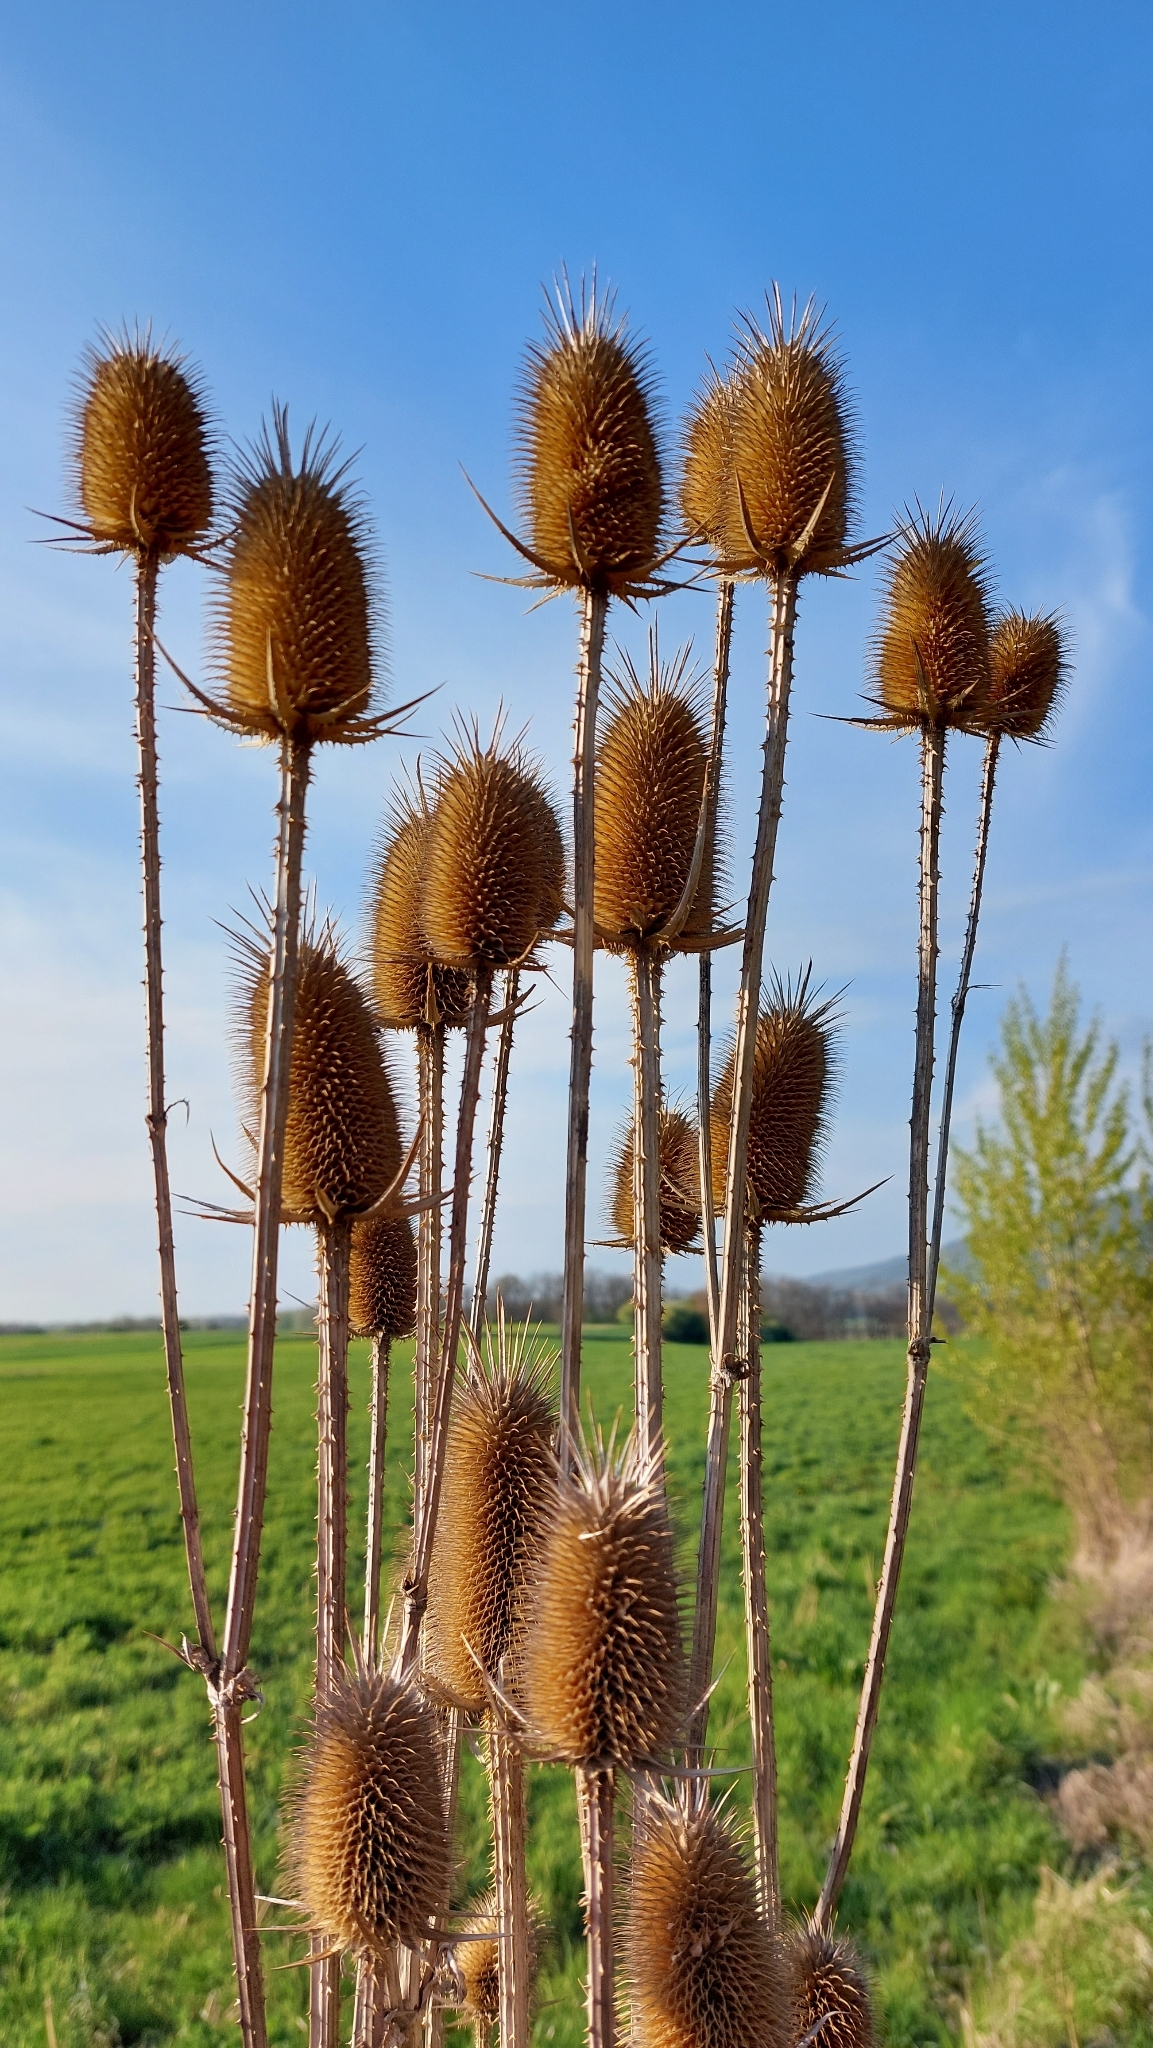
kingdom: Plantae
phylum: Tracheophyta
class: Magnoliopsida
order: Dipsacales
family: Caprifoliaceae
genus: Dipsacus
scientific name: Dipsacus laciniatus
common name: Cut-leaved teasel
